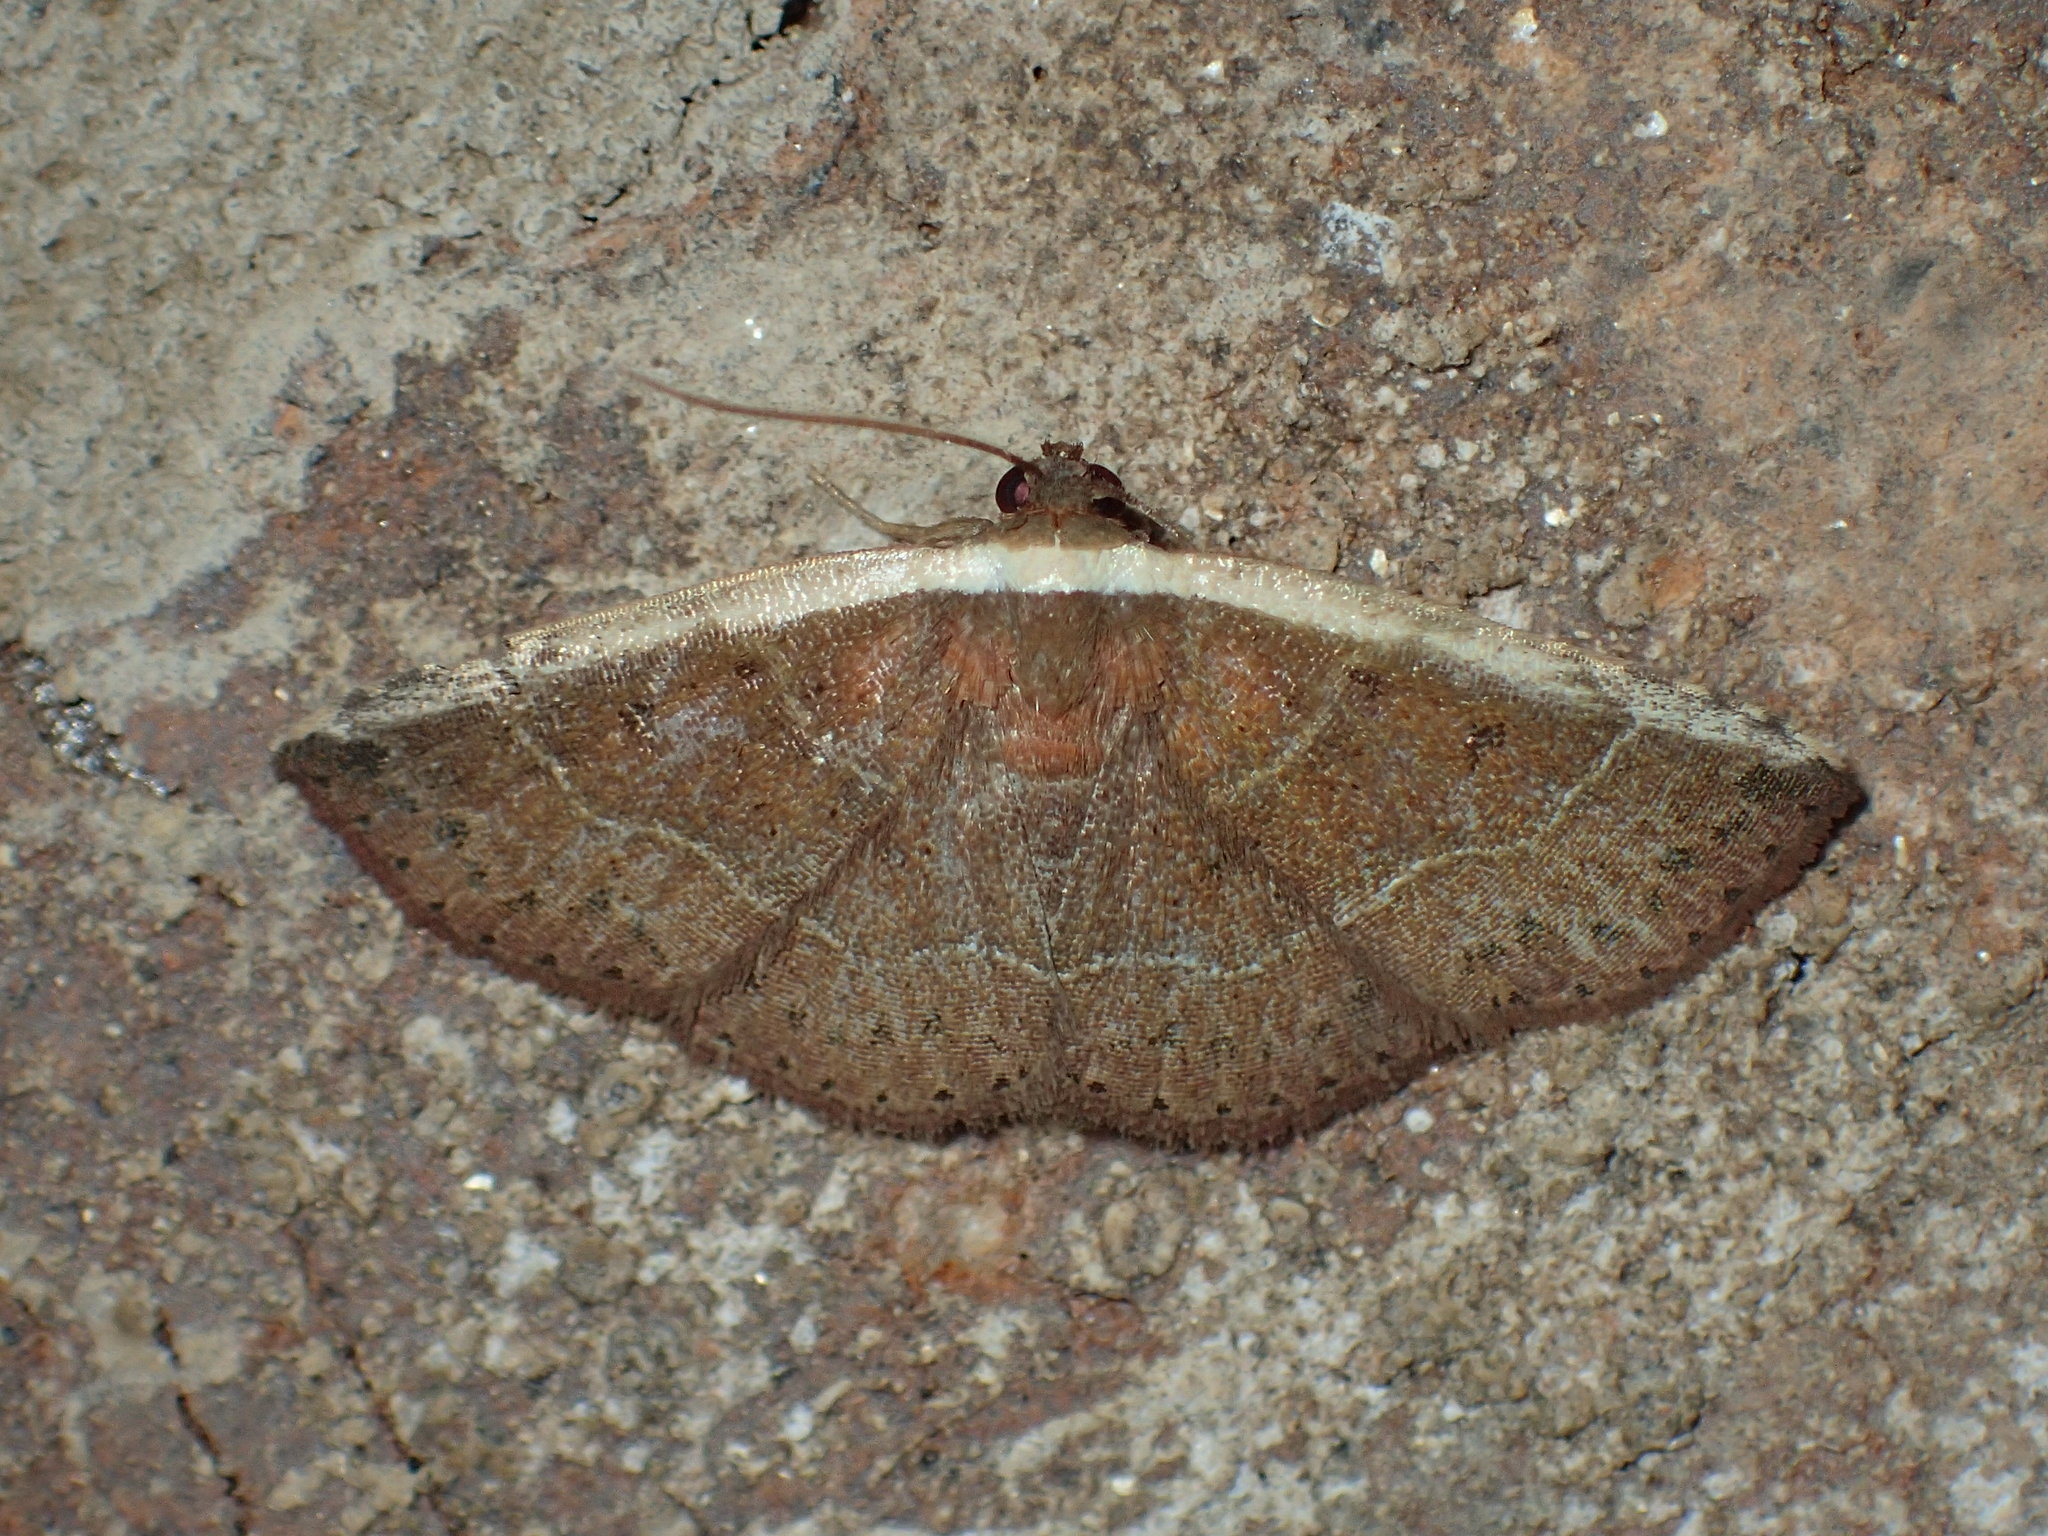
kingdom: Animalia
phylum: Arthropoda
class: Insecta
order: Lepidoptera
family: Noctuidae
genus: Ozarba
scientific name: Ozarba albocostaliata
